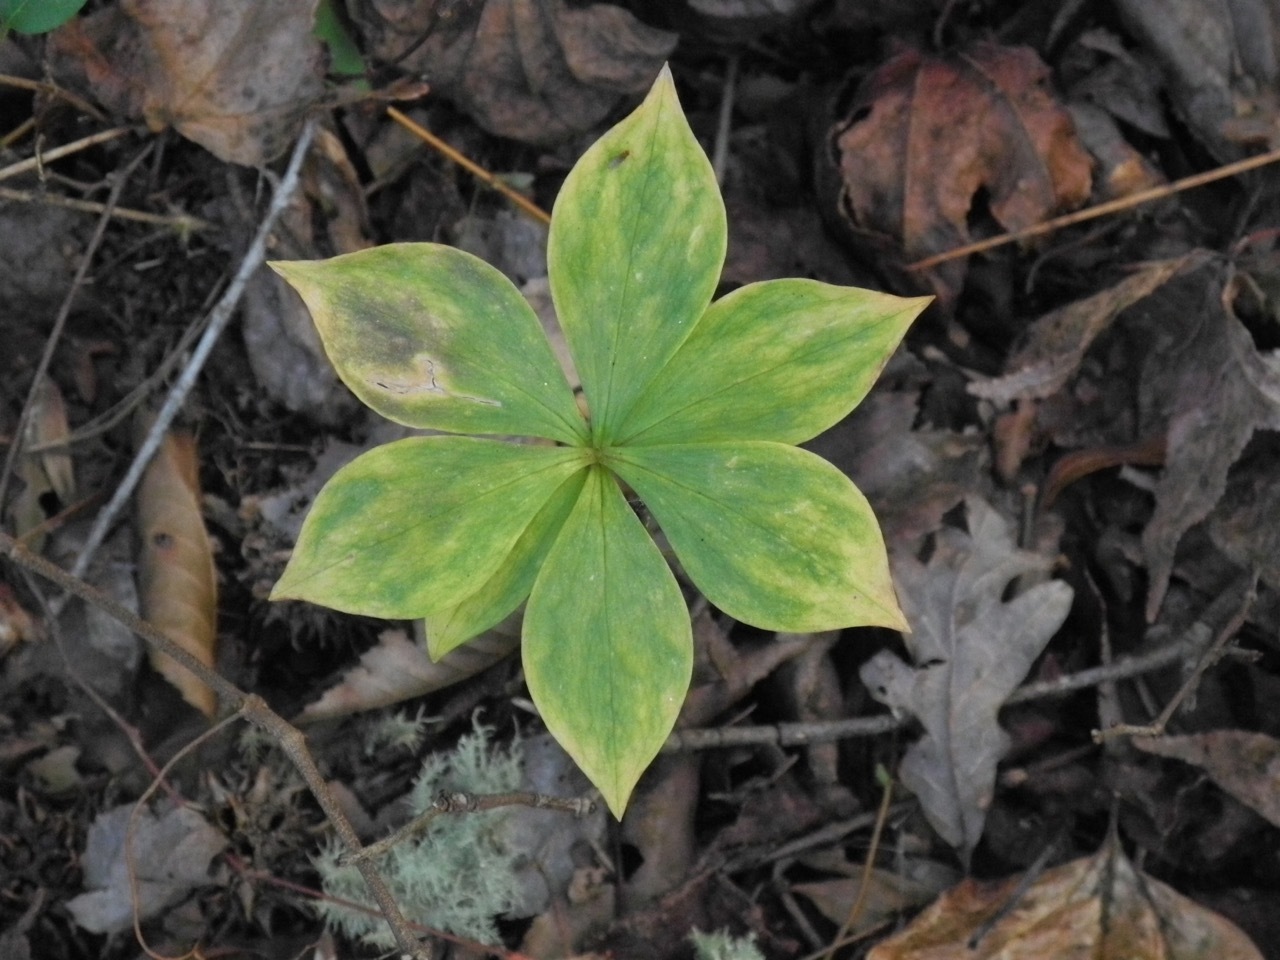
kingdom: Plantae
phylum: Tracheophyta
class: Liliopsida
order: Liliales
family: Liliaceae
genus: Medeola
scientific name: Medeola virginiana
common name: Indian cucumber-root
